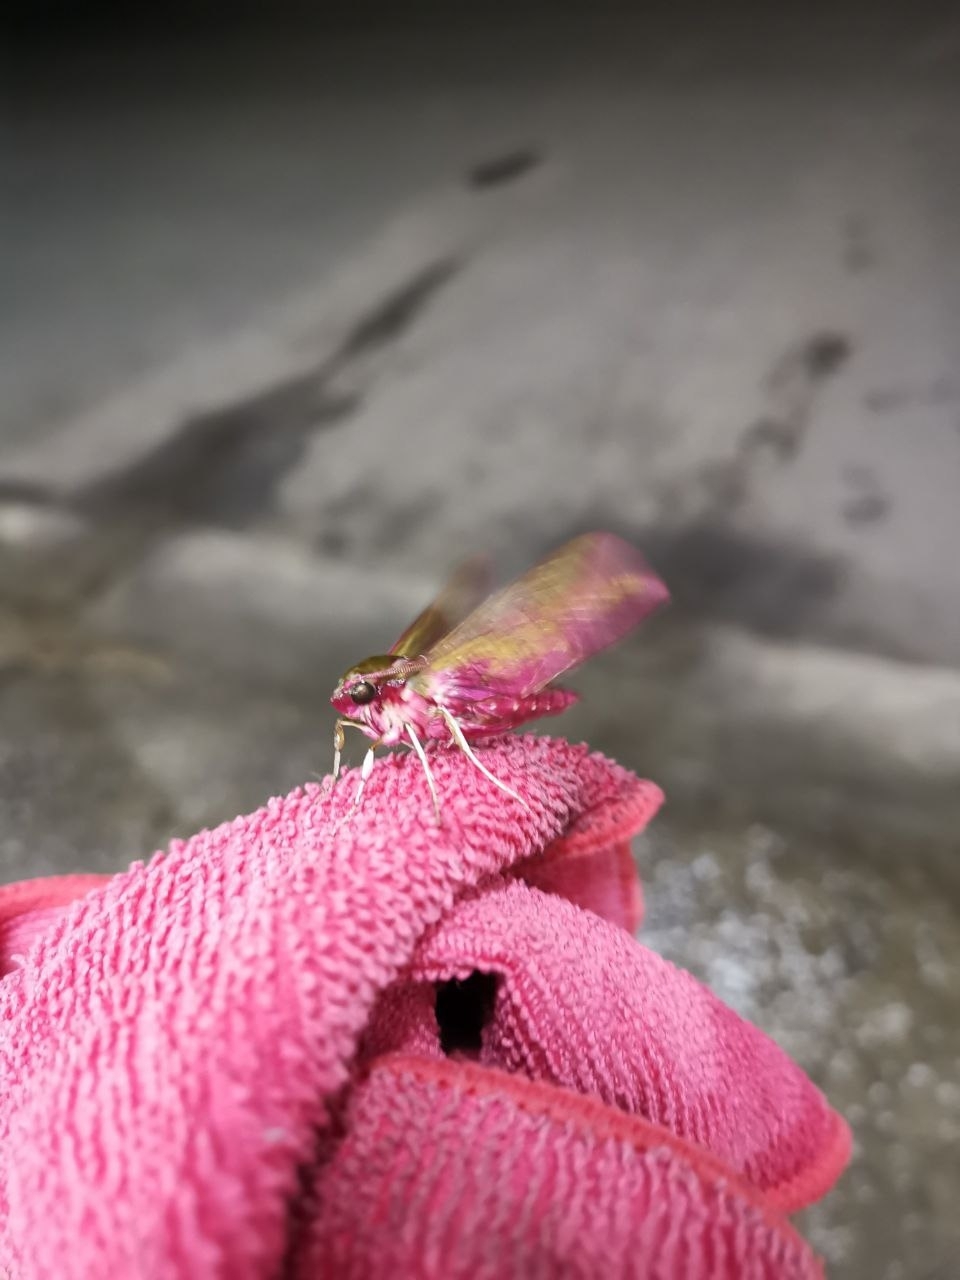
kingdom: Animalia
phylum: Arthropoda
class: Insecta
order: Lepidoptera
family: Sphingidae
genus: Deilephila
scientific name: Deilephila porcellus
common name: Small elephant hawk-moth
